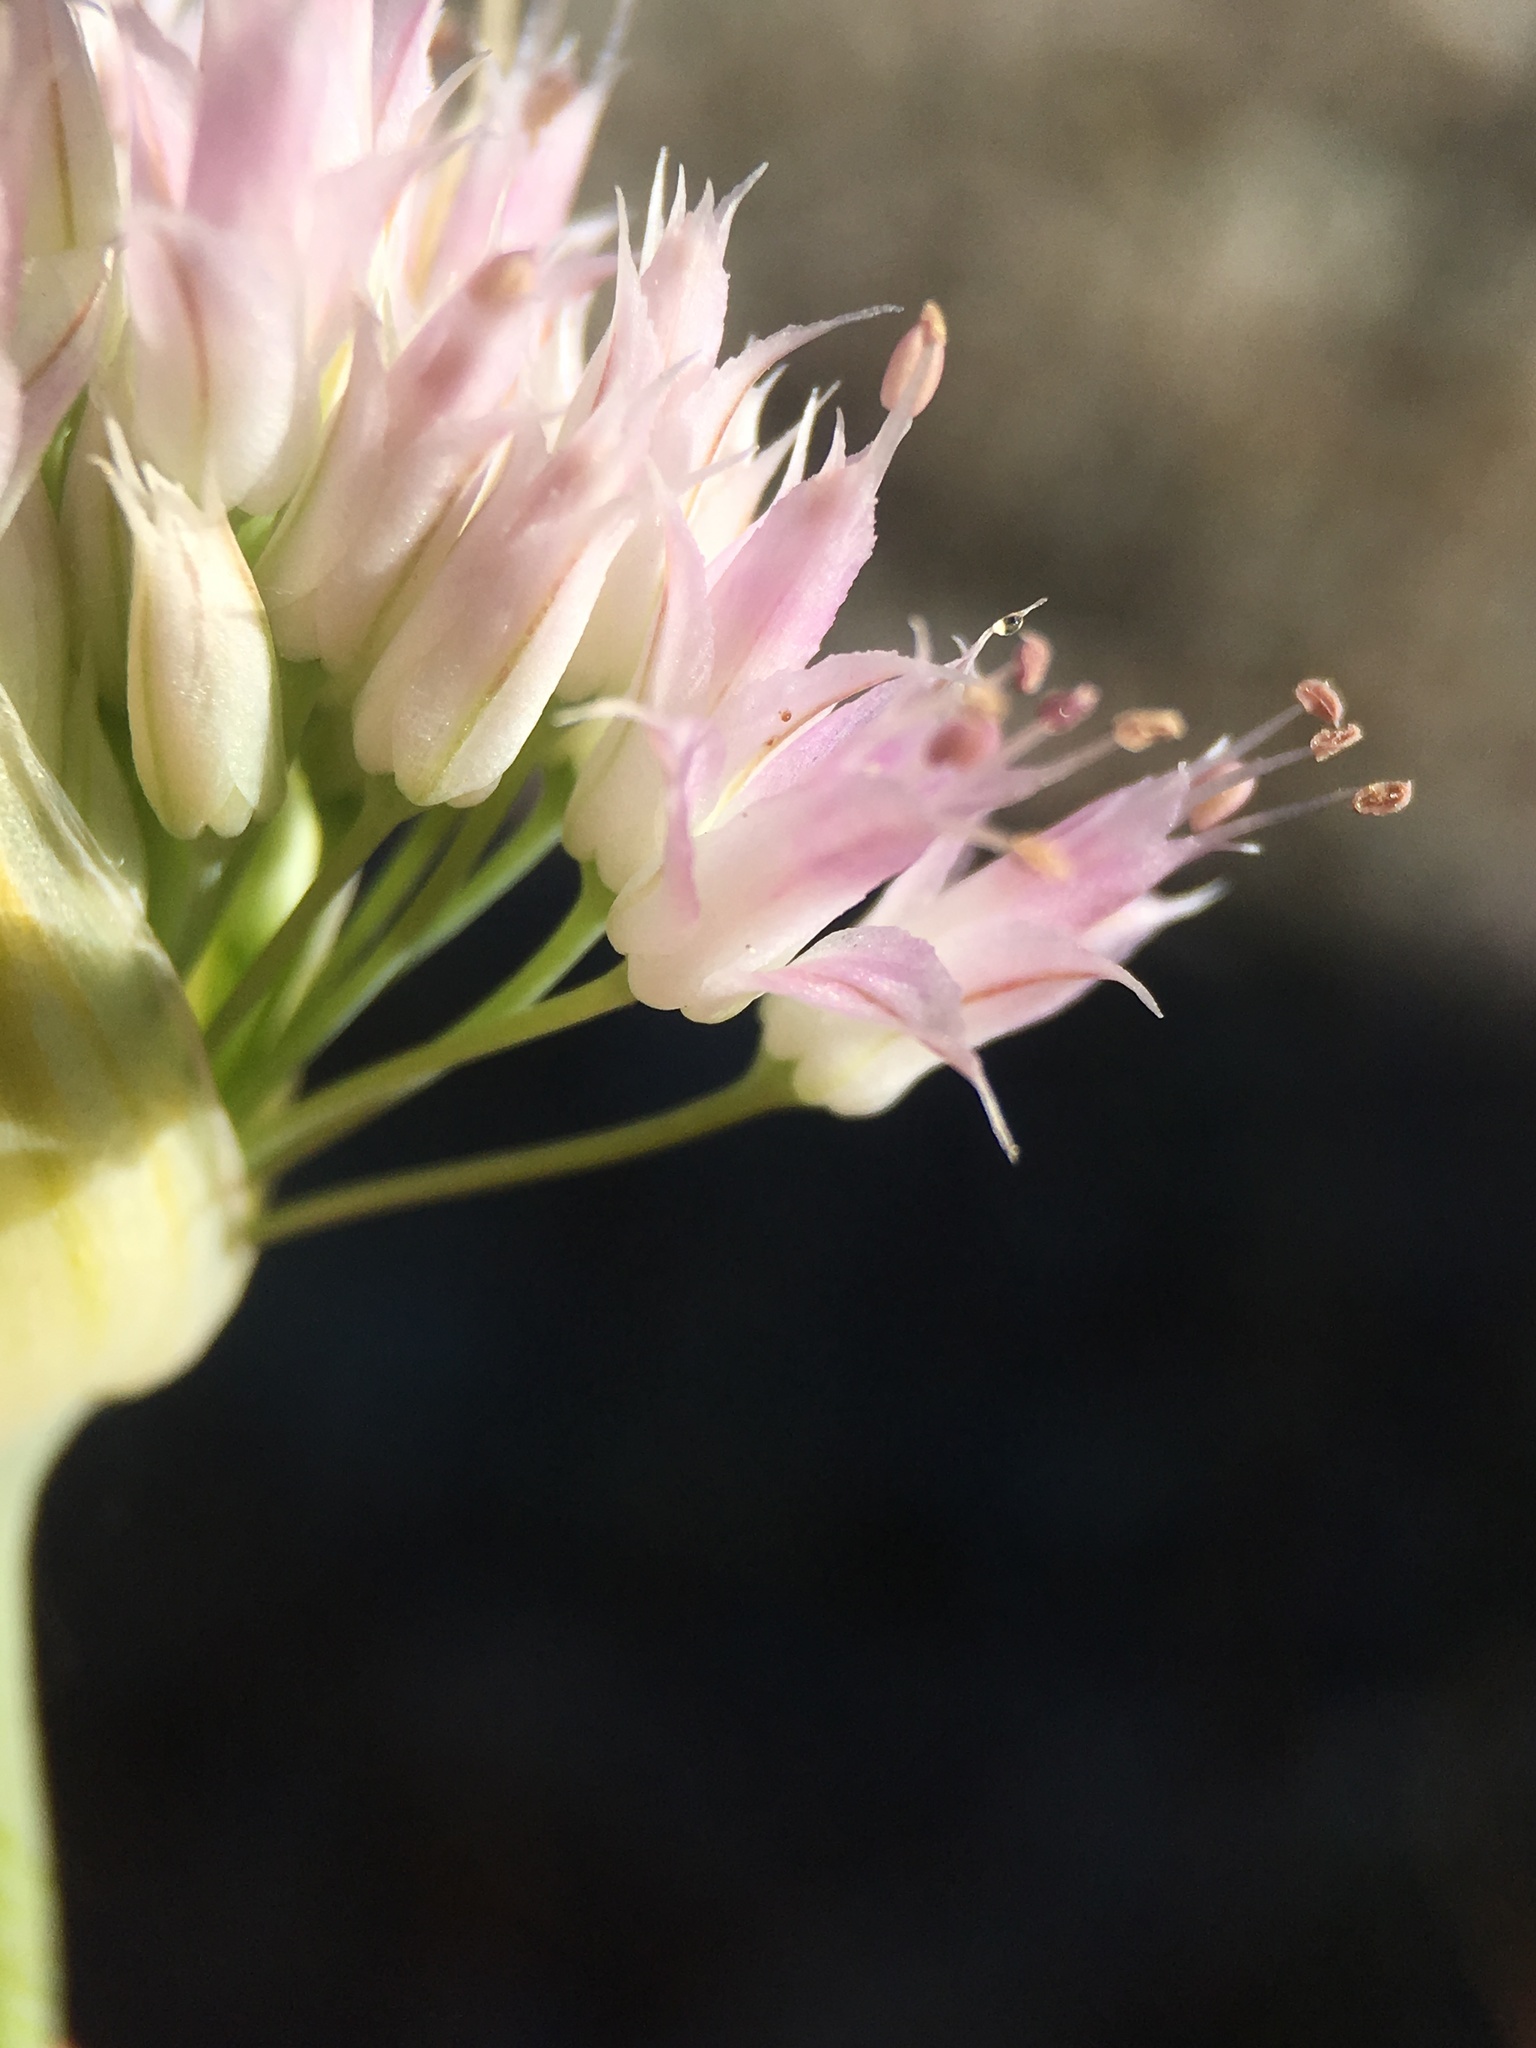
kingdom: Plantae
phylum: Tracheophyta
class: Liliopsida
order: Asparagales
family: Amaryllidaceae
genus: Allium
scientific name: Allium sanbornii
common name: Sanborn's onion
